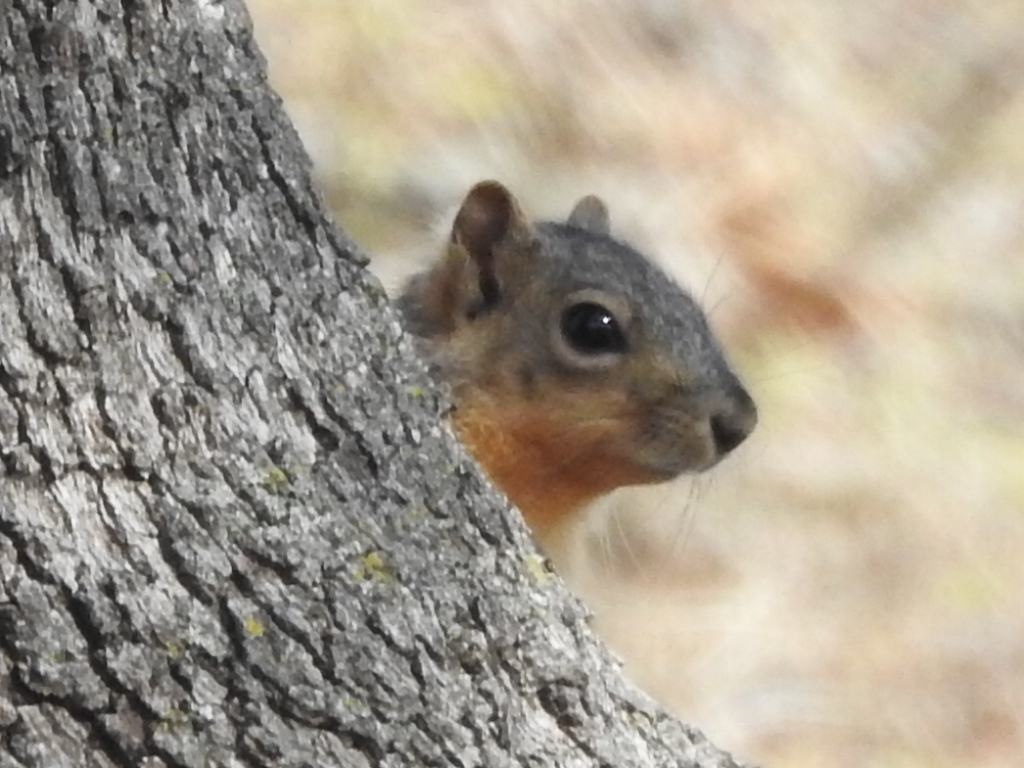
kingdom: Animalia
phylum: Chordata
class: Mammalia
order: Rodentia
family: Sciuridae
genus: Sciurus
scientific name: Sciurus niger
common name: Fox squirrel
